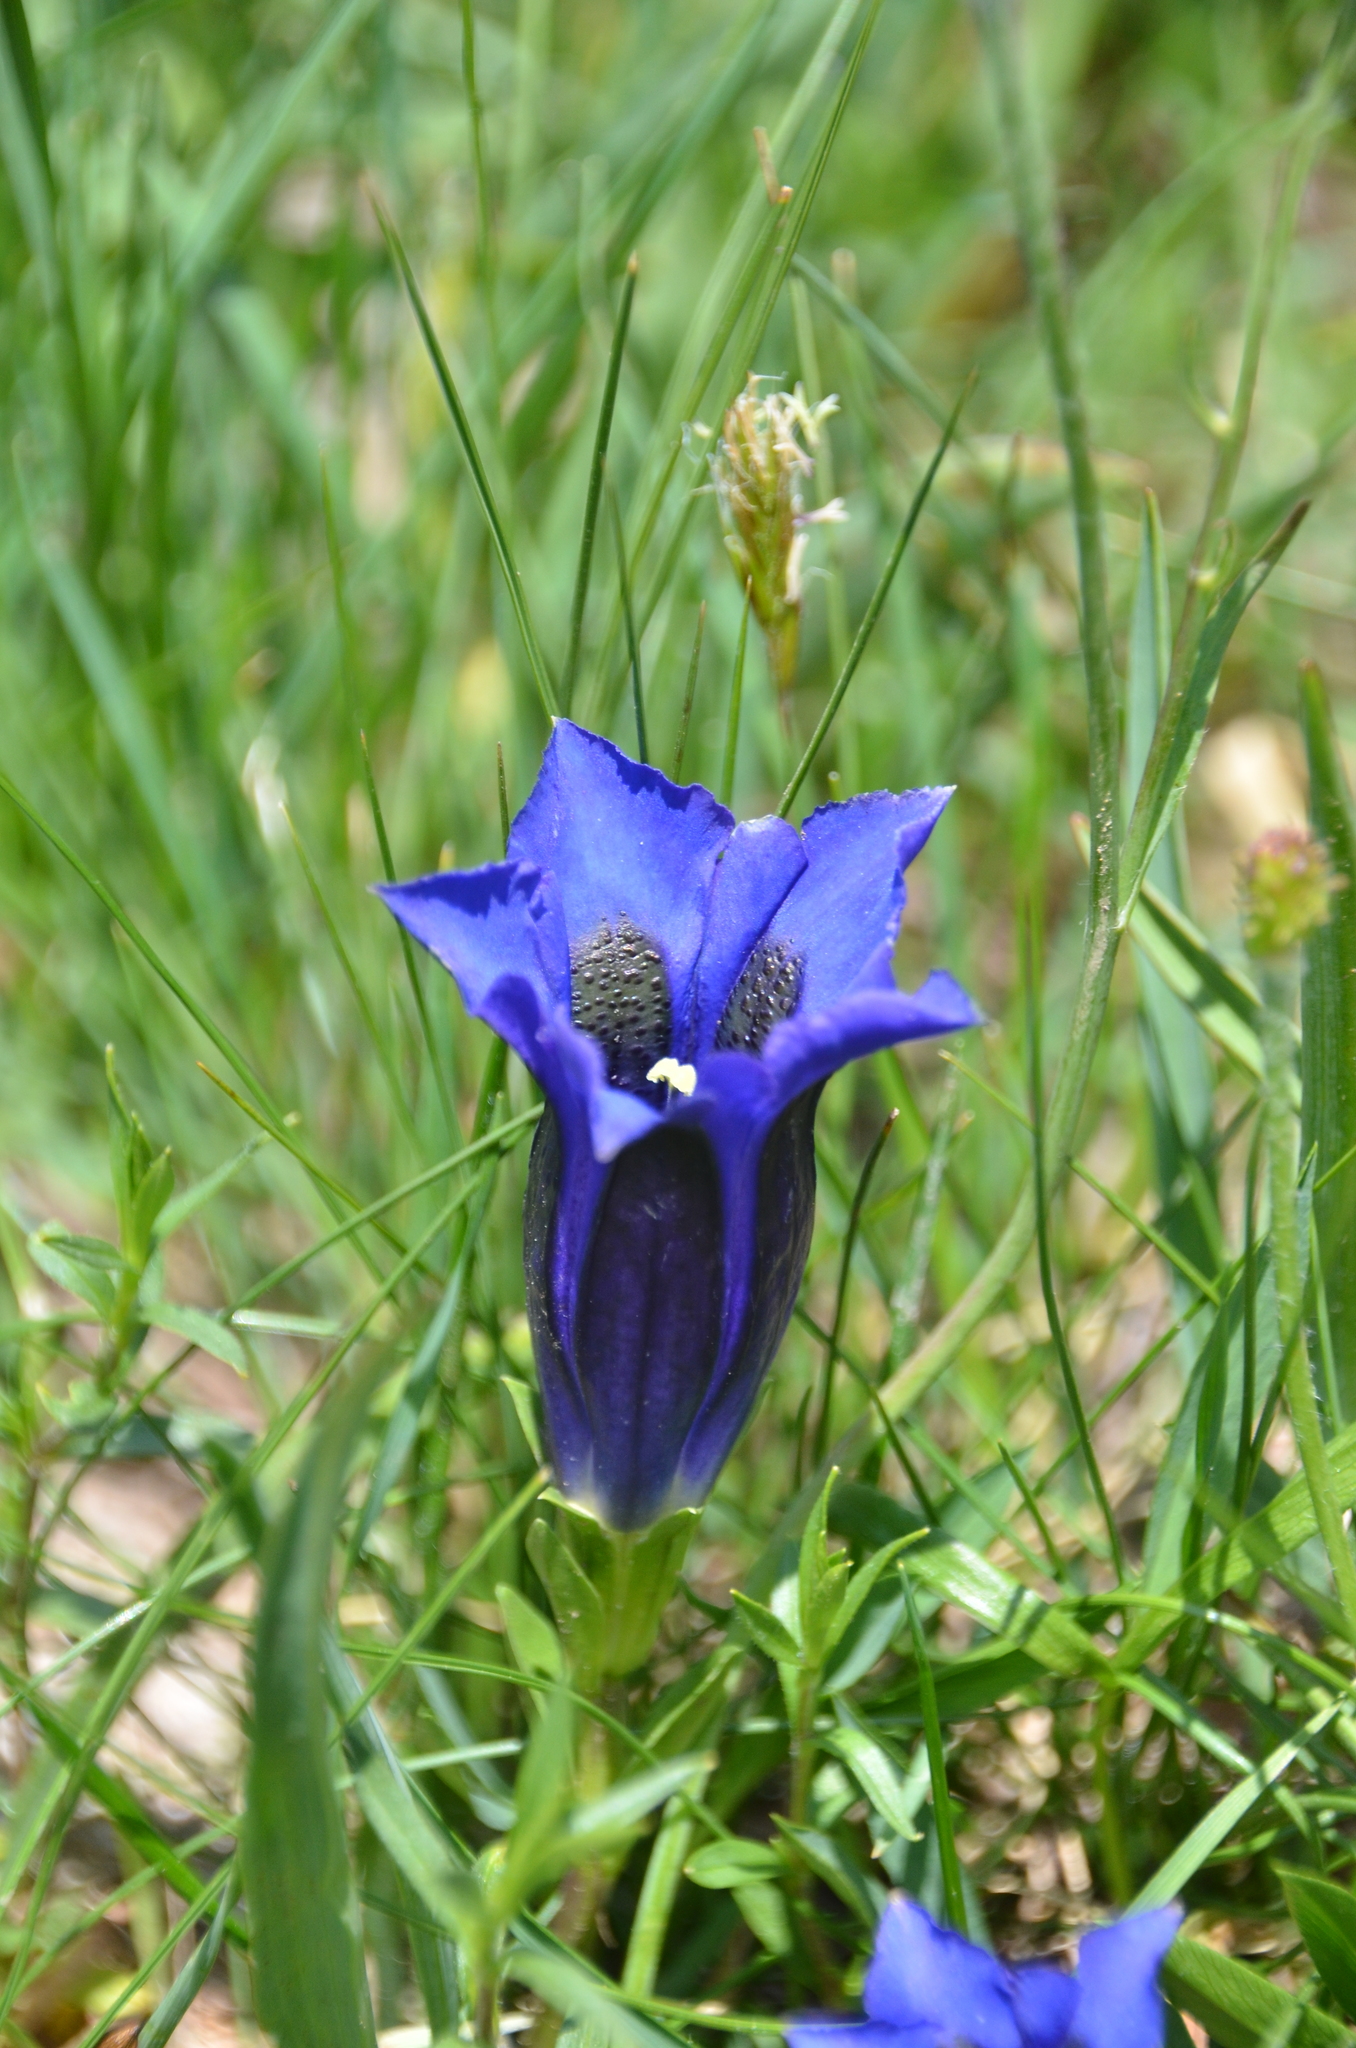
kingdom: Plantae
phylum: Tracheophyta
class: Magnoliopsida
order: Gentianales
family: Gentianaceae
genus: Gentiana
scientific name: Gentiana acaulis
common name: Trumpet gentian
